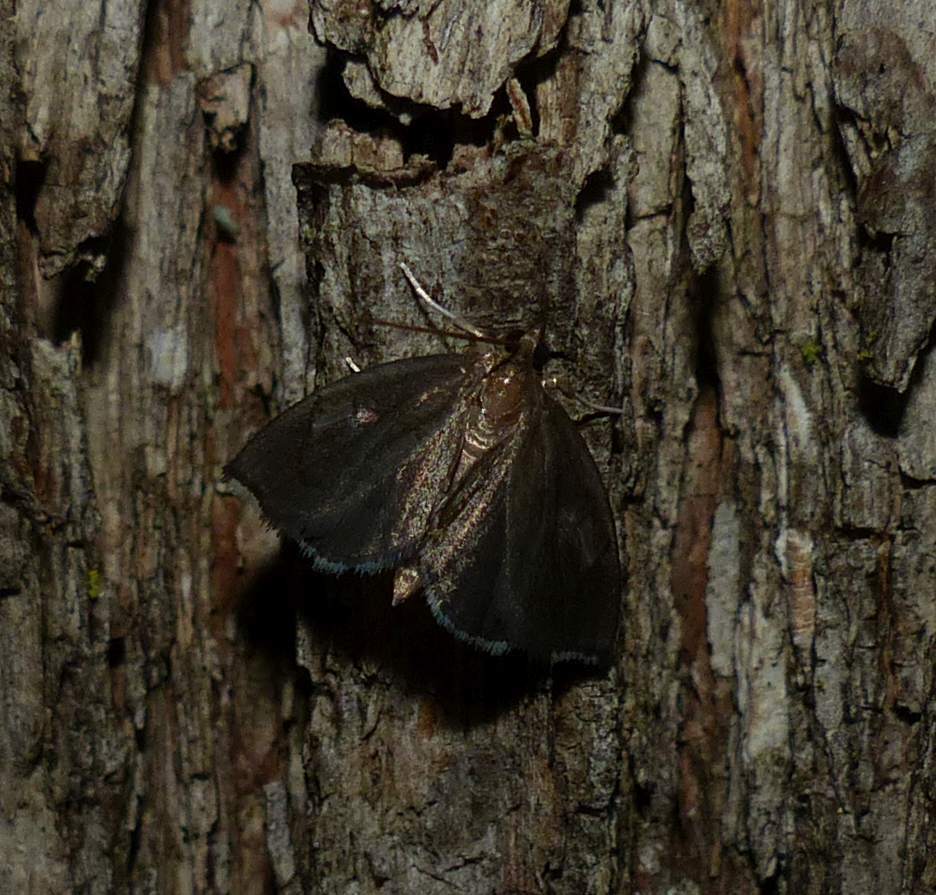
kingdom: Animalia
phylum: Arthropoda
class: Insecta
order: Lepidoptera
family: Crambidae
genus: Perispasta
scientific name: Perispasta caeculalis
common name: Titian peale's moth
